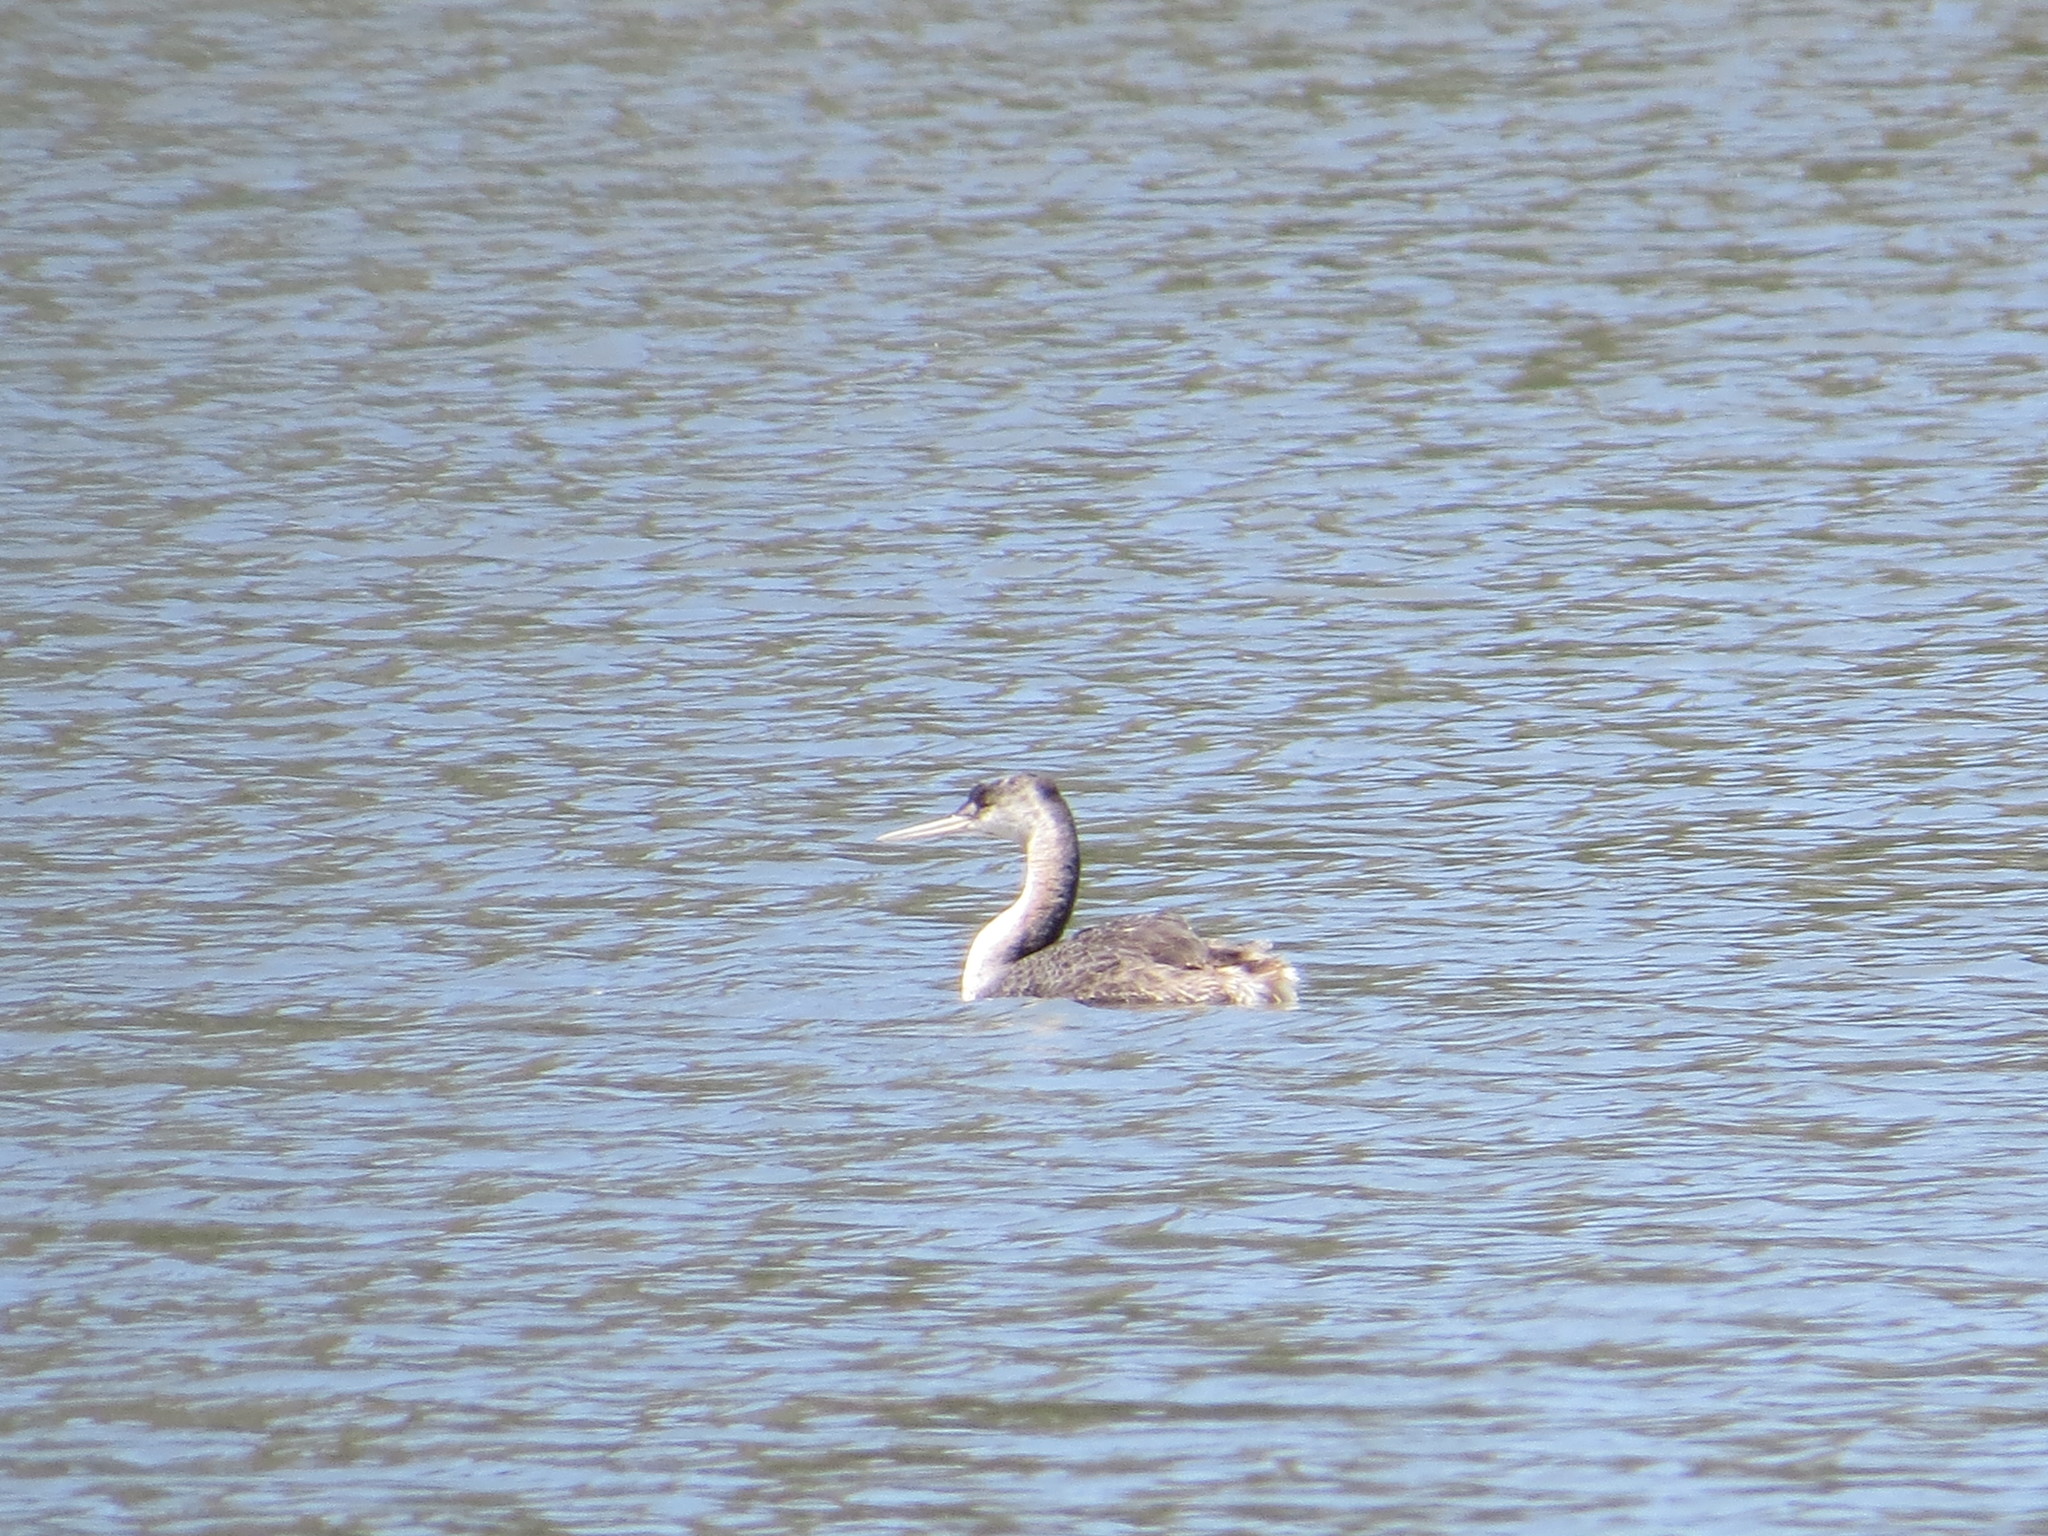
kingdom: Animalia
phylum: Chordata
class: Aves
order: Podicipediformes
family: Podicipedidae
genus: Podiceps
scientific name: Podiceps major
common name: Great grebe
